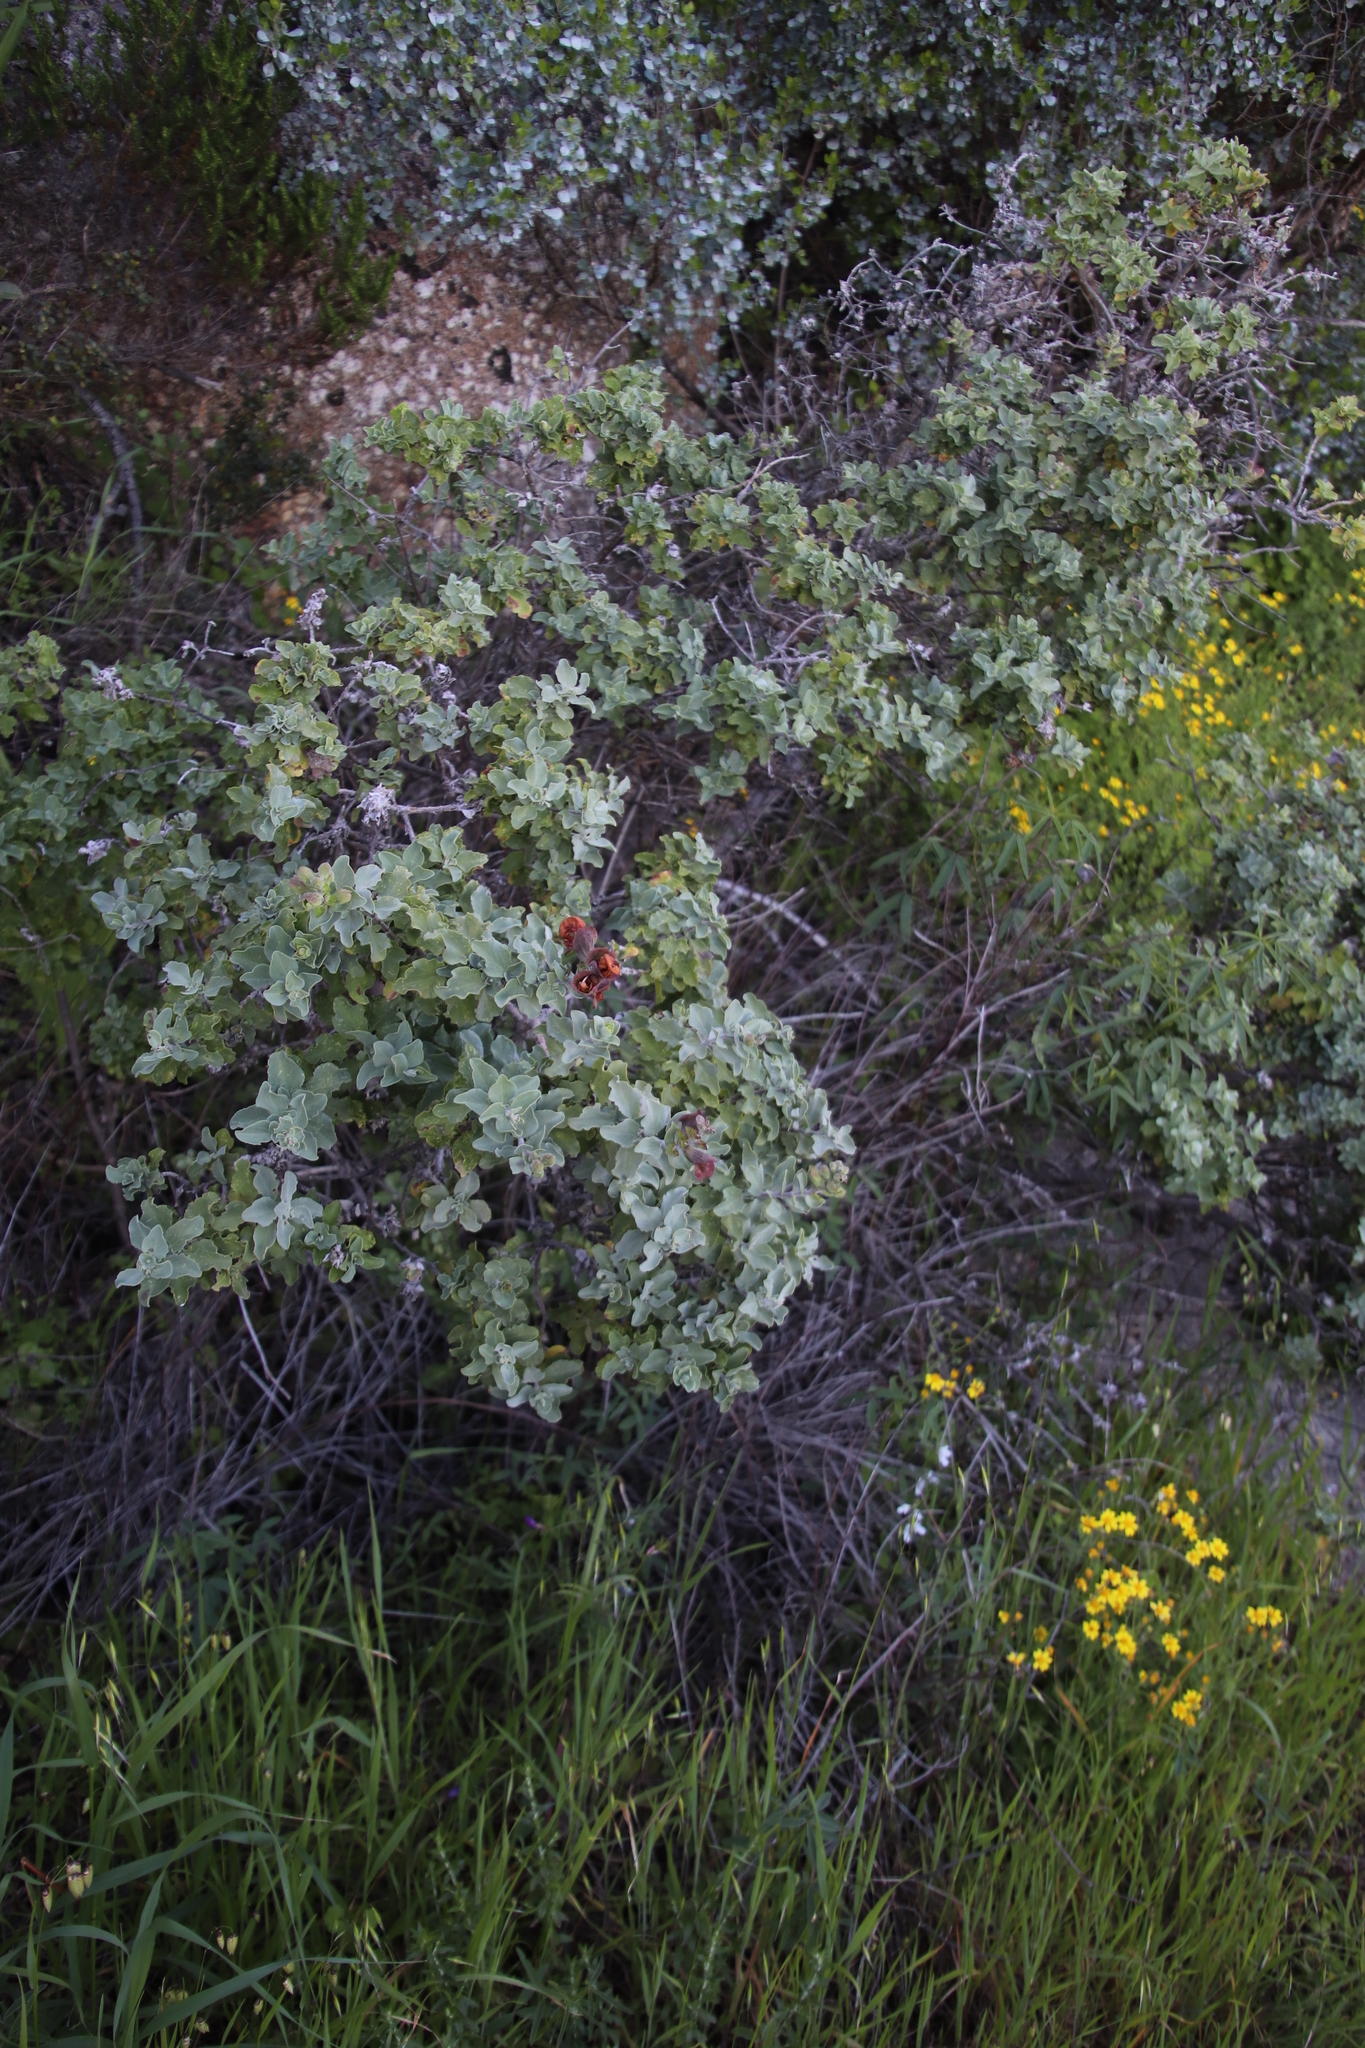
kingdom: Plantae
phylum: Tracheophyta
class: Magnoliopsida
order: Lamiales
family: Lamiaceae
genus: Salvia
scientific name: Salvia aurea
